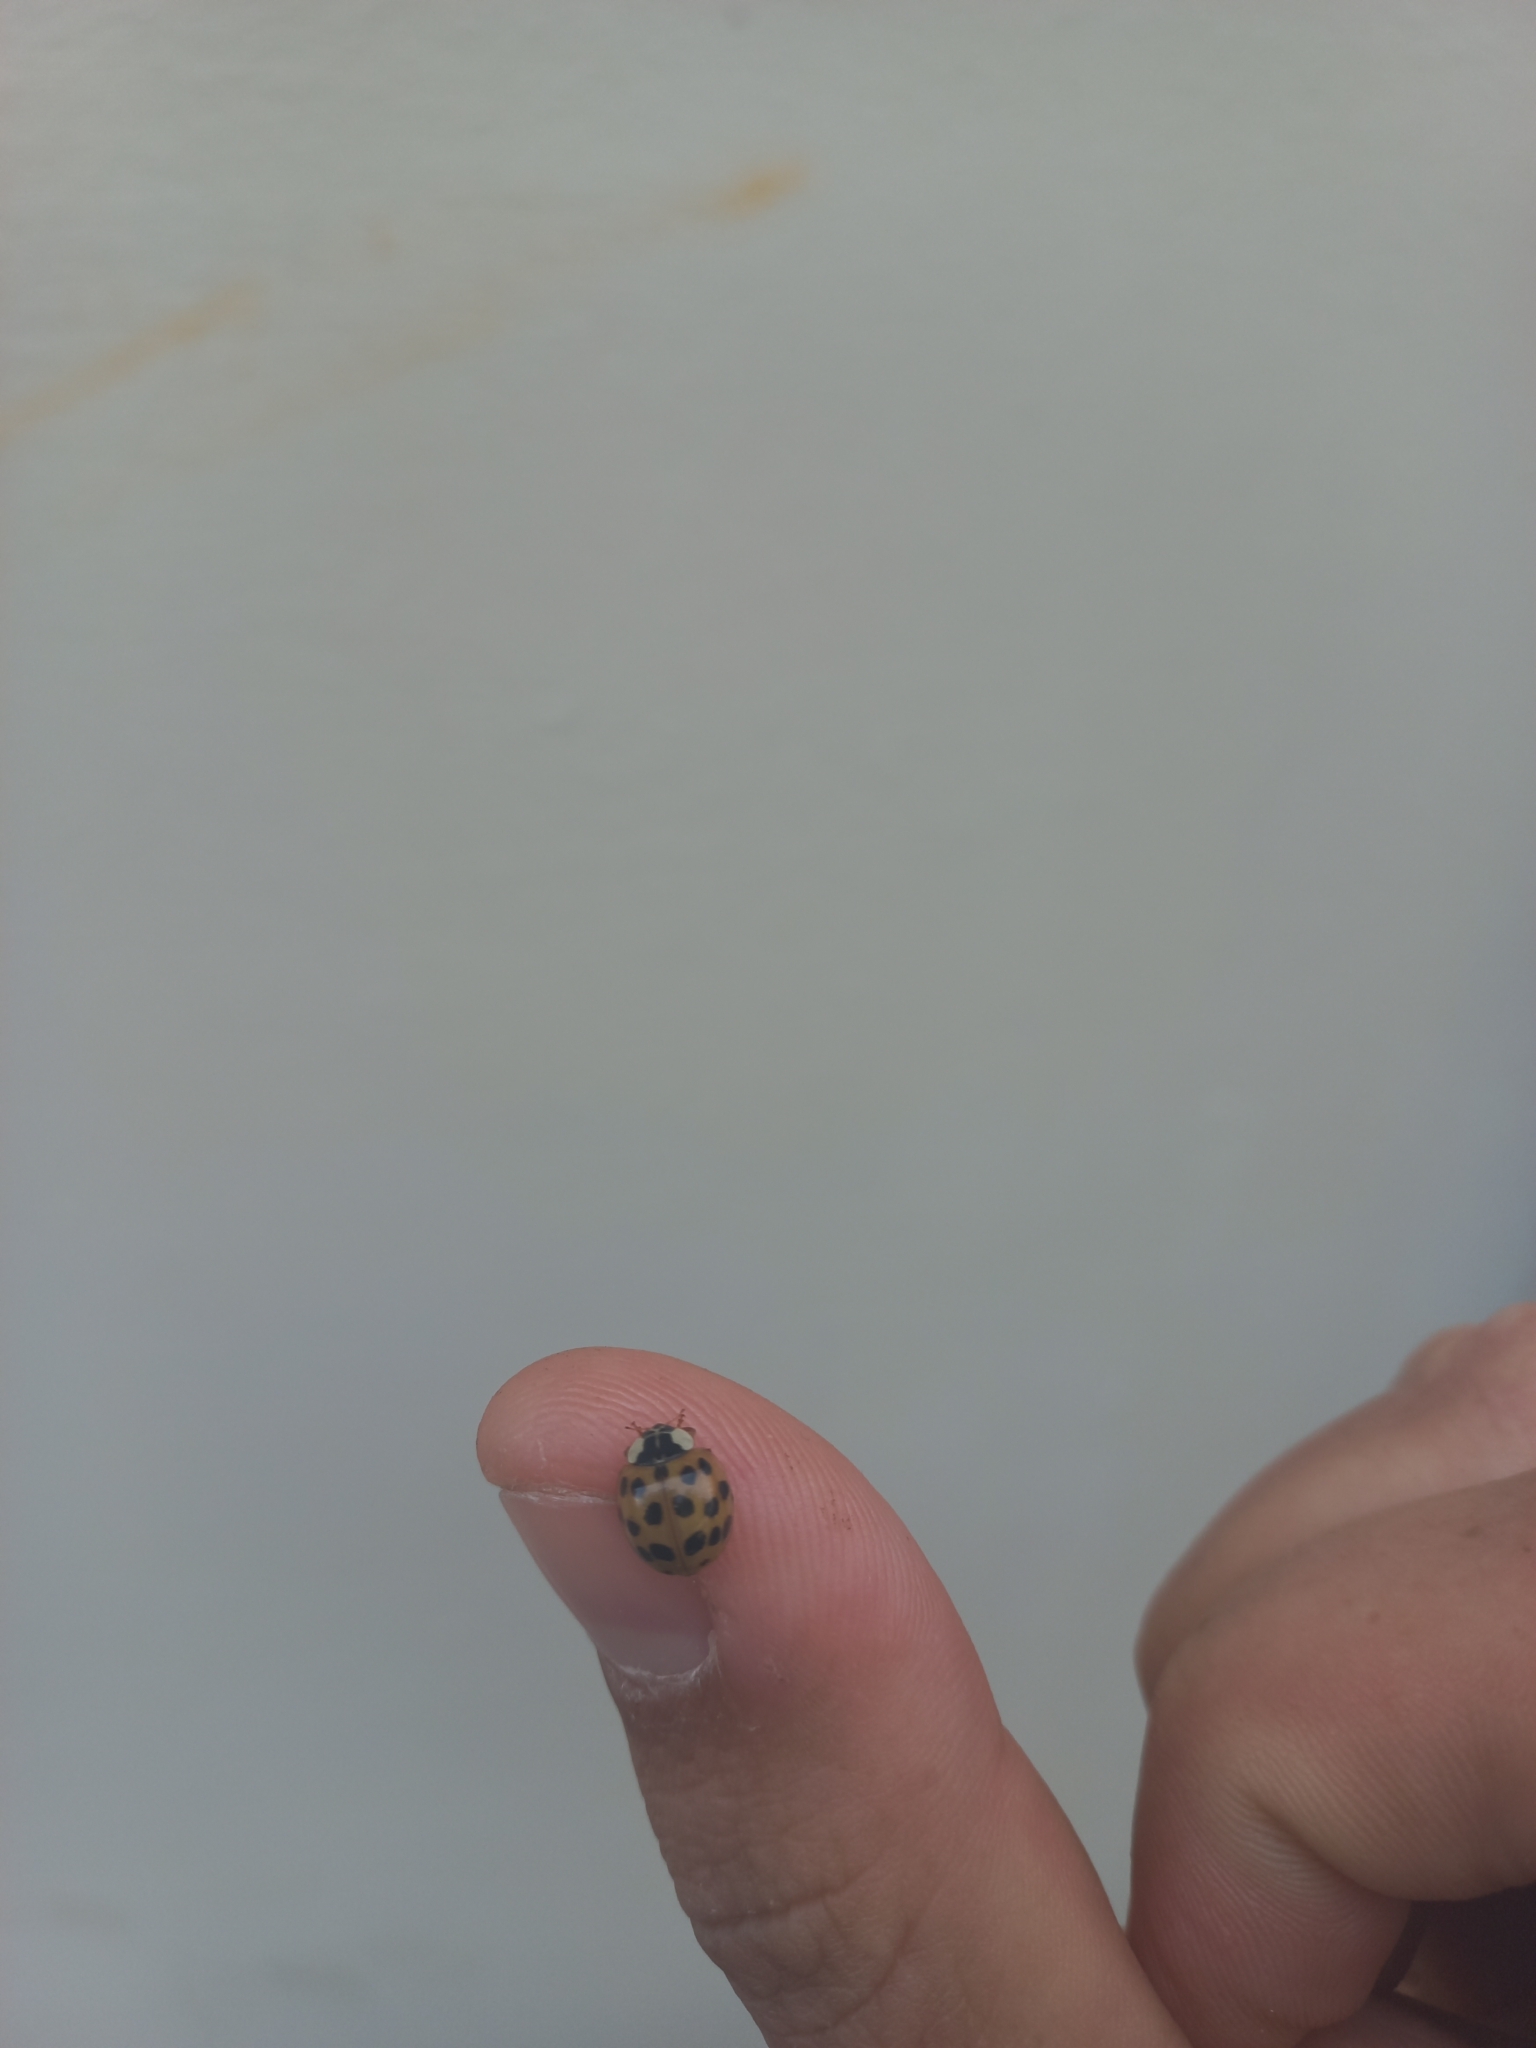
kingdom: Animalia
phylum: Arthropoda
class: Insecta
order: Coleoptera
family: Coccinellidae
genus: Harmonia
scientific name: Harmonia axyridis
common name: Harlequin ladybird
